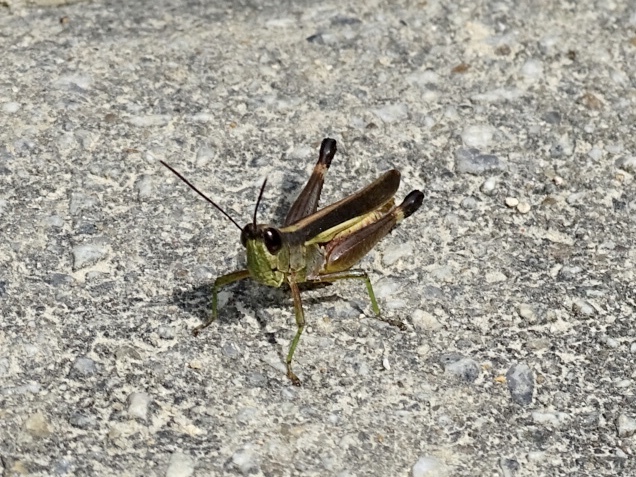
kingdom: Animalia
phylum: Arthropoda
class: Insecta
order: Orthoptera
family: Acrididae
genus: Ceracris
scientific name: Ceracris fasciata
